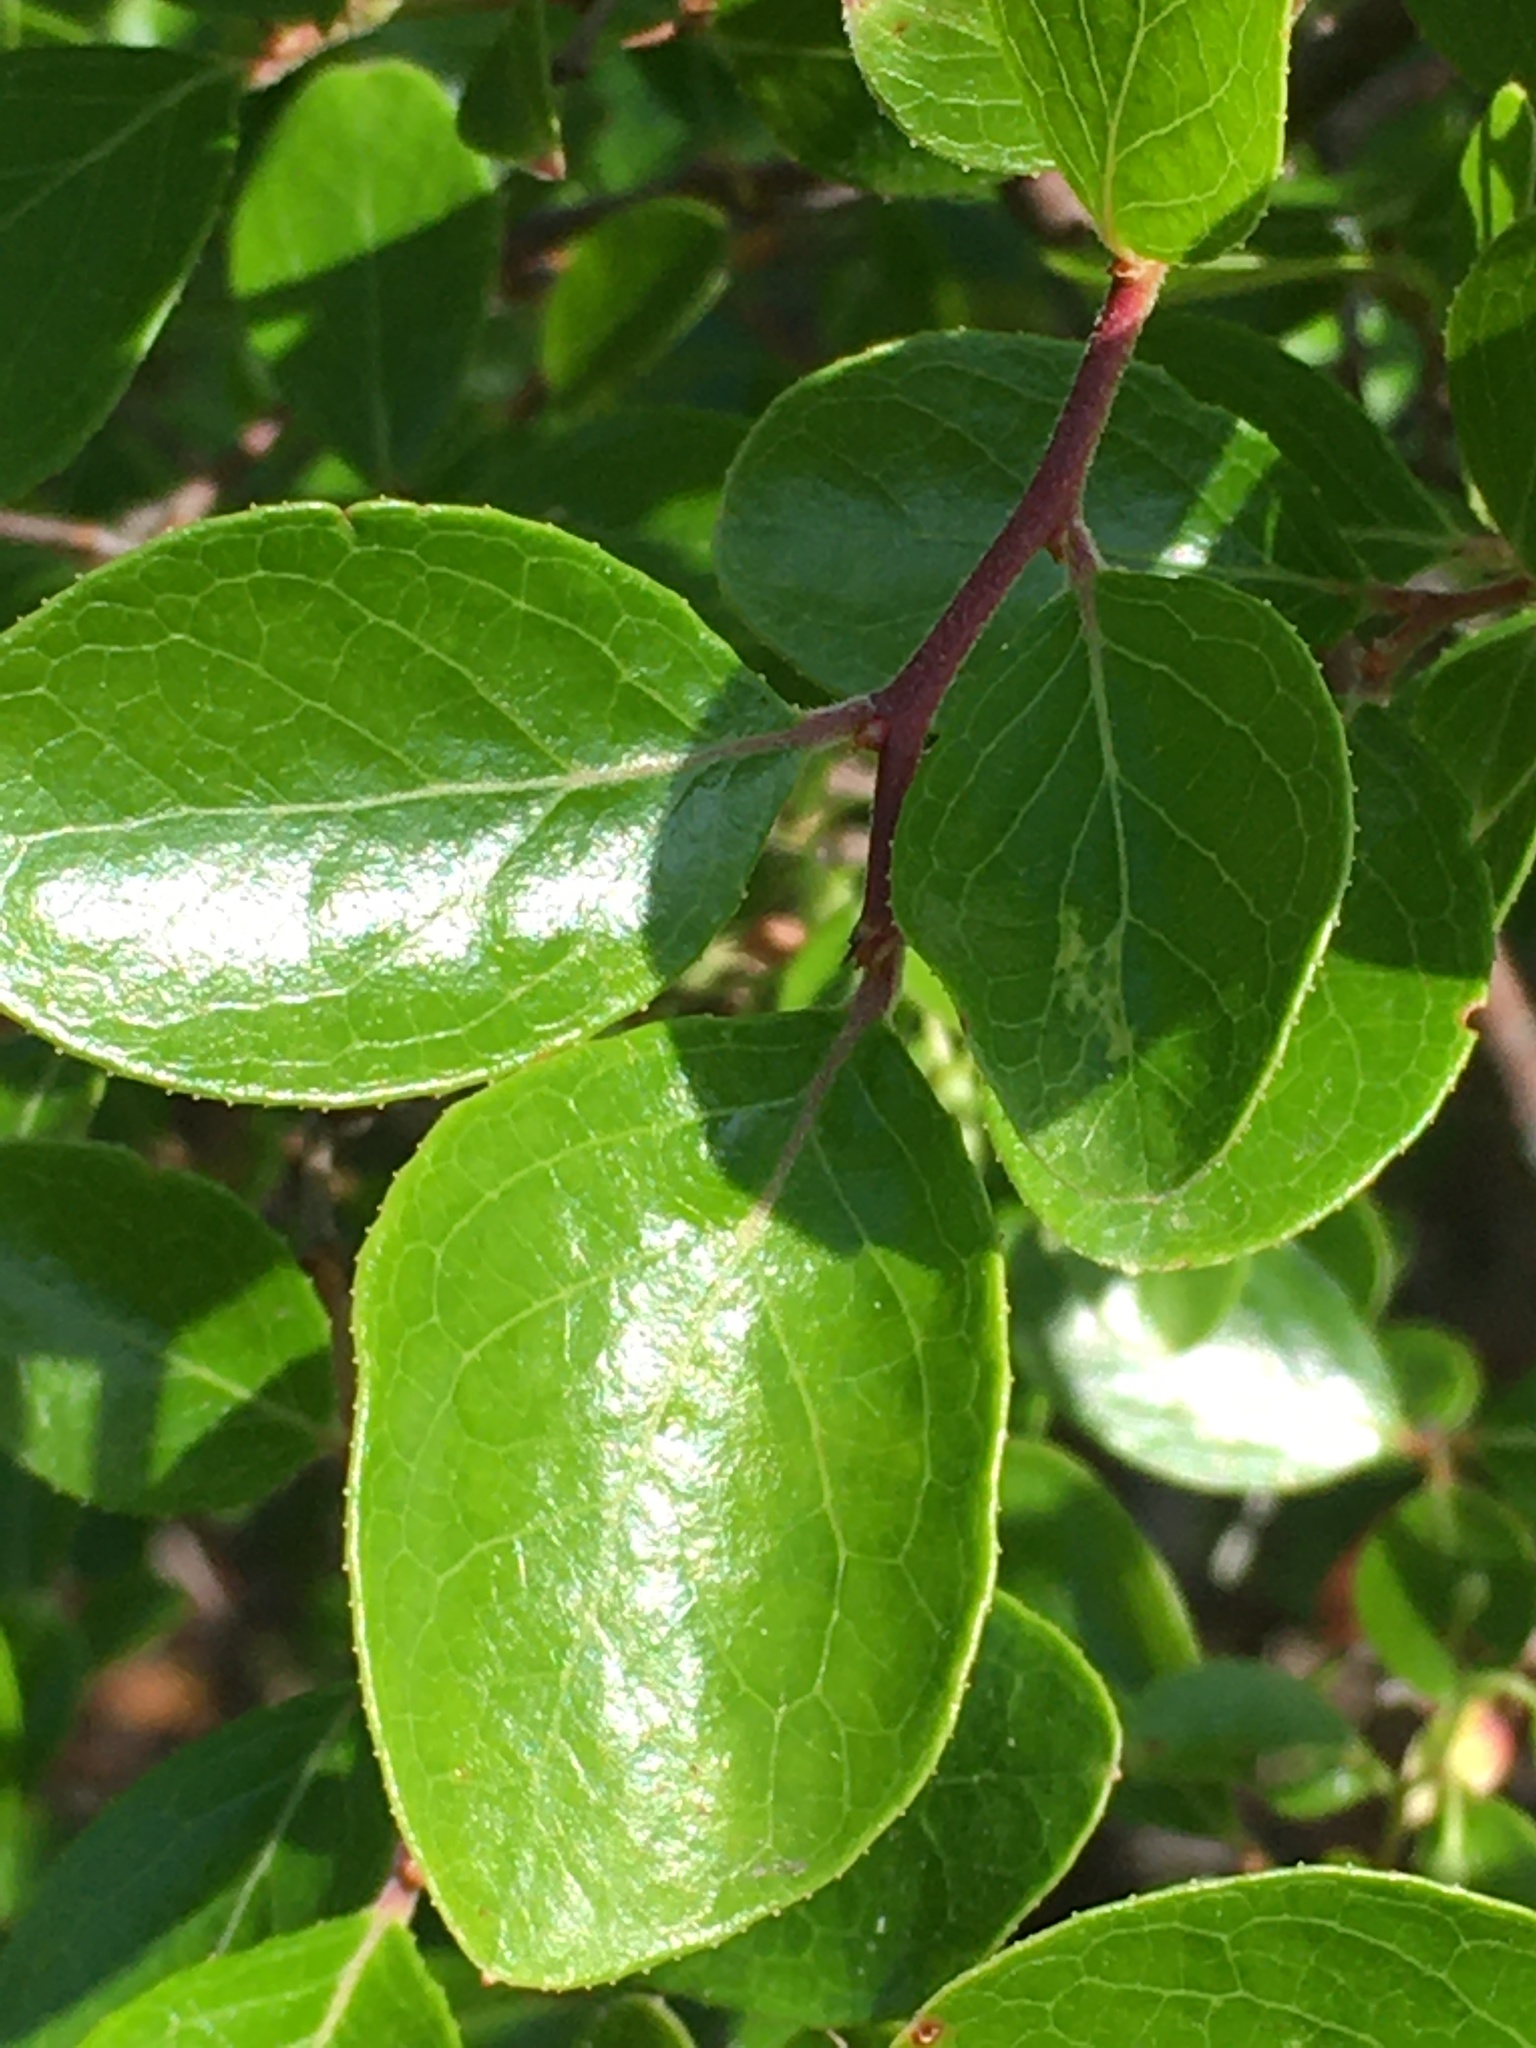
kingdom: Plantae
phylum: Tracheophyta
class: Magnoliopsida
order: Ericales
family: Ericaceae
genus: Vaccinium
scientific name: Vaccinium arboreum
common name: Farkleberry
